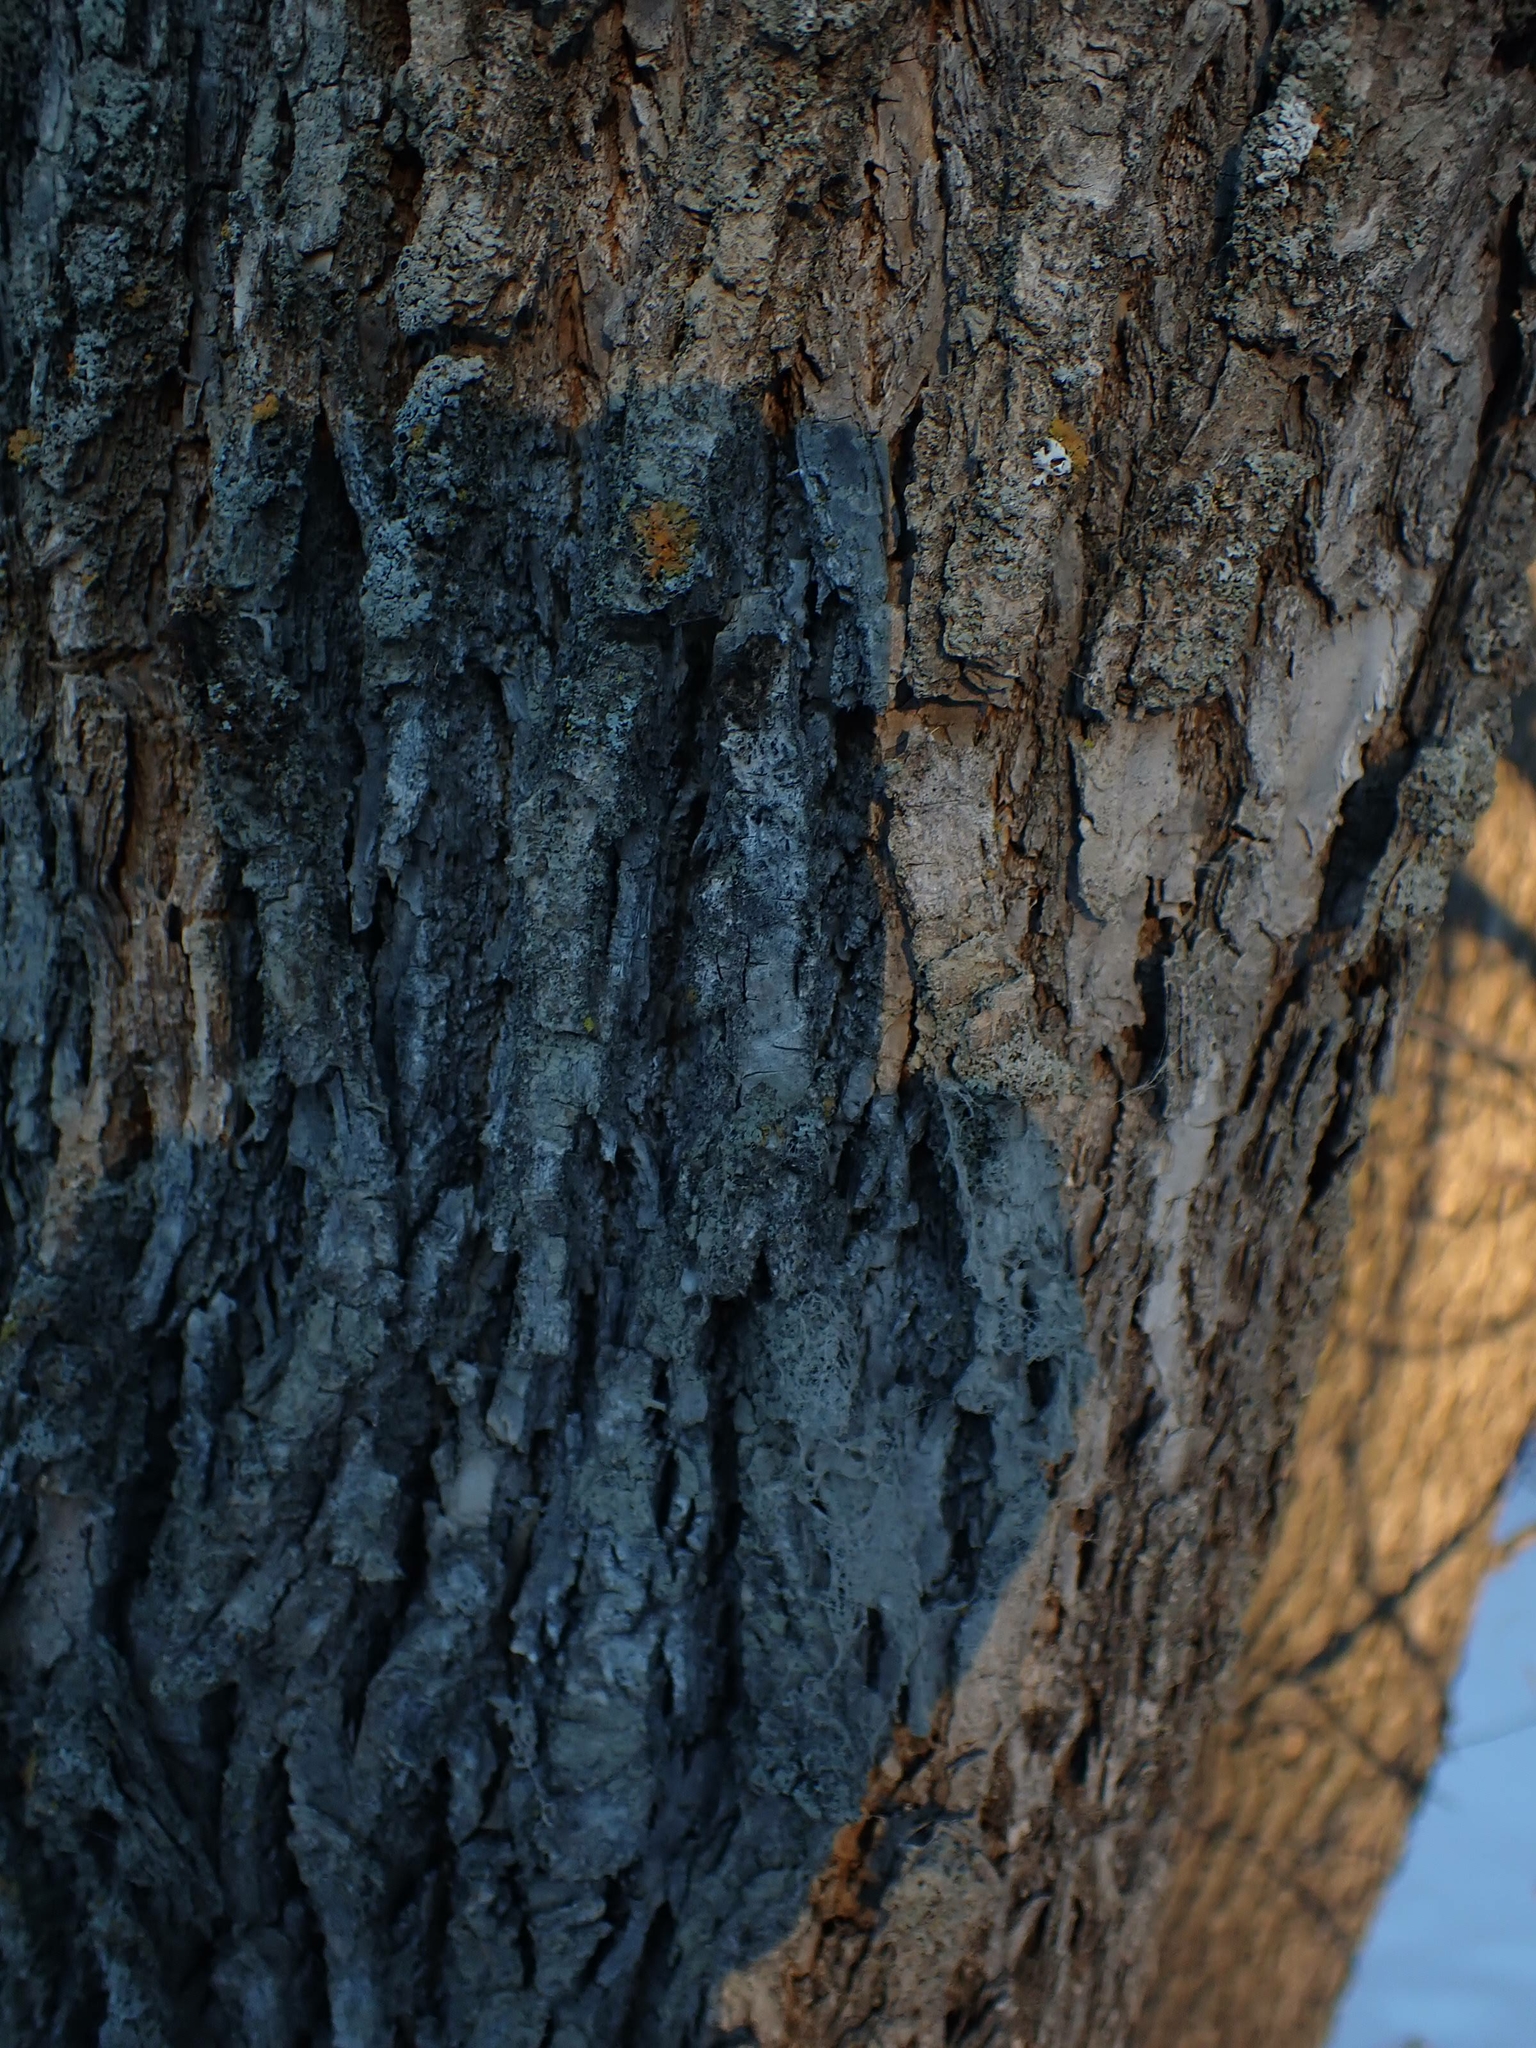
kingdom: Plantae
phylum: Tracheophyta
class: Magnoliopsida
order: Sapindales
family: Sapindaceae
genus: Acer
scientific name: Acer negundo
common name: Ashleaf maple
